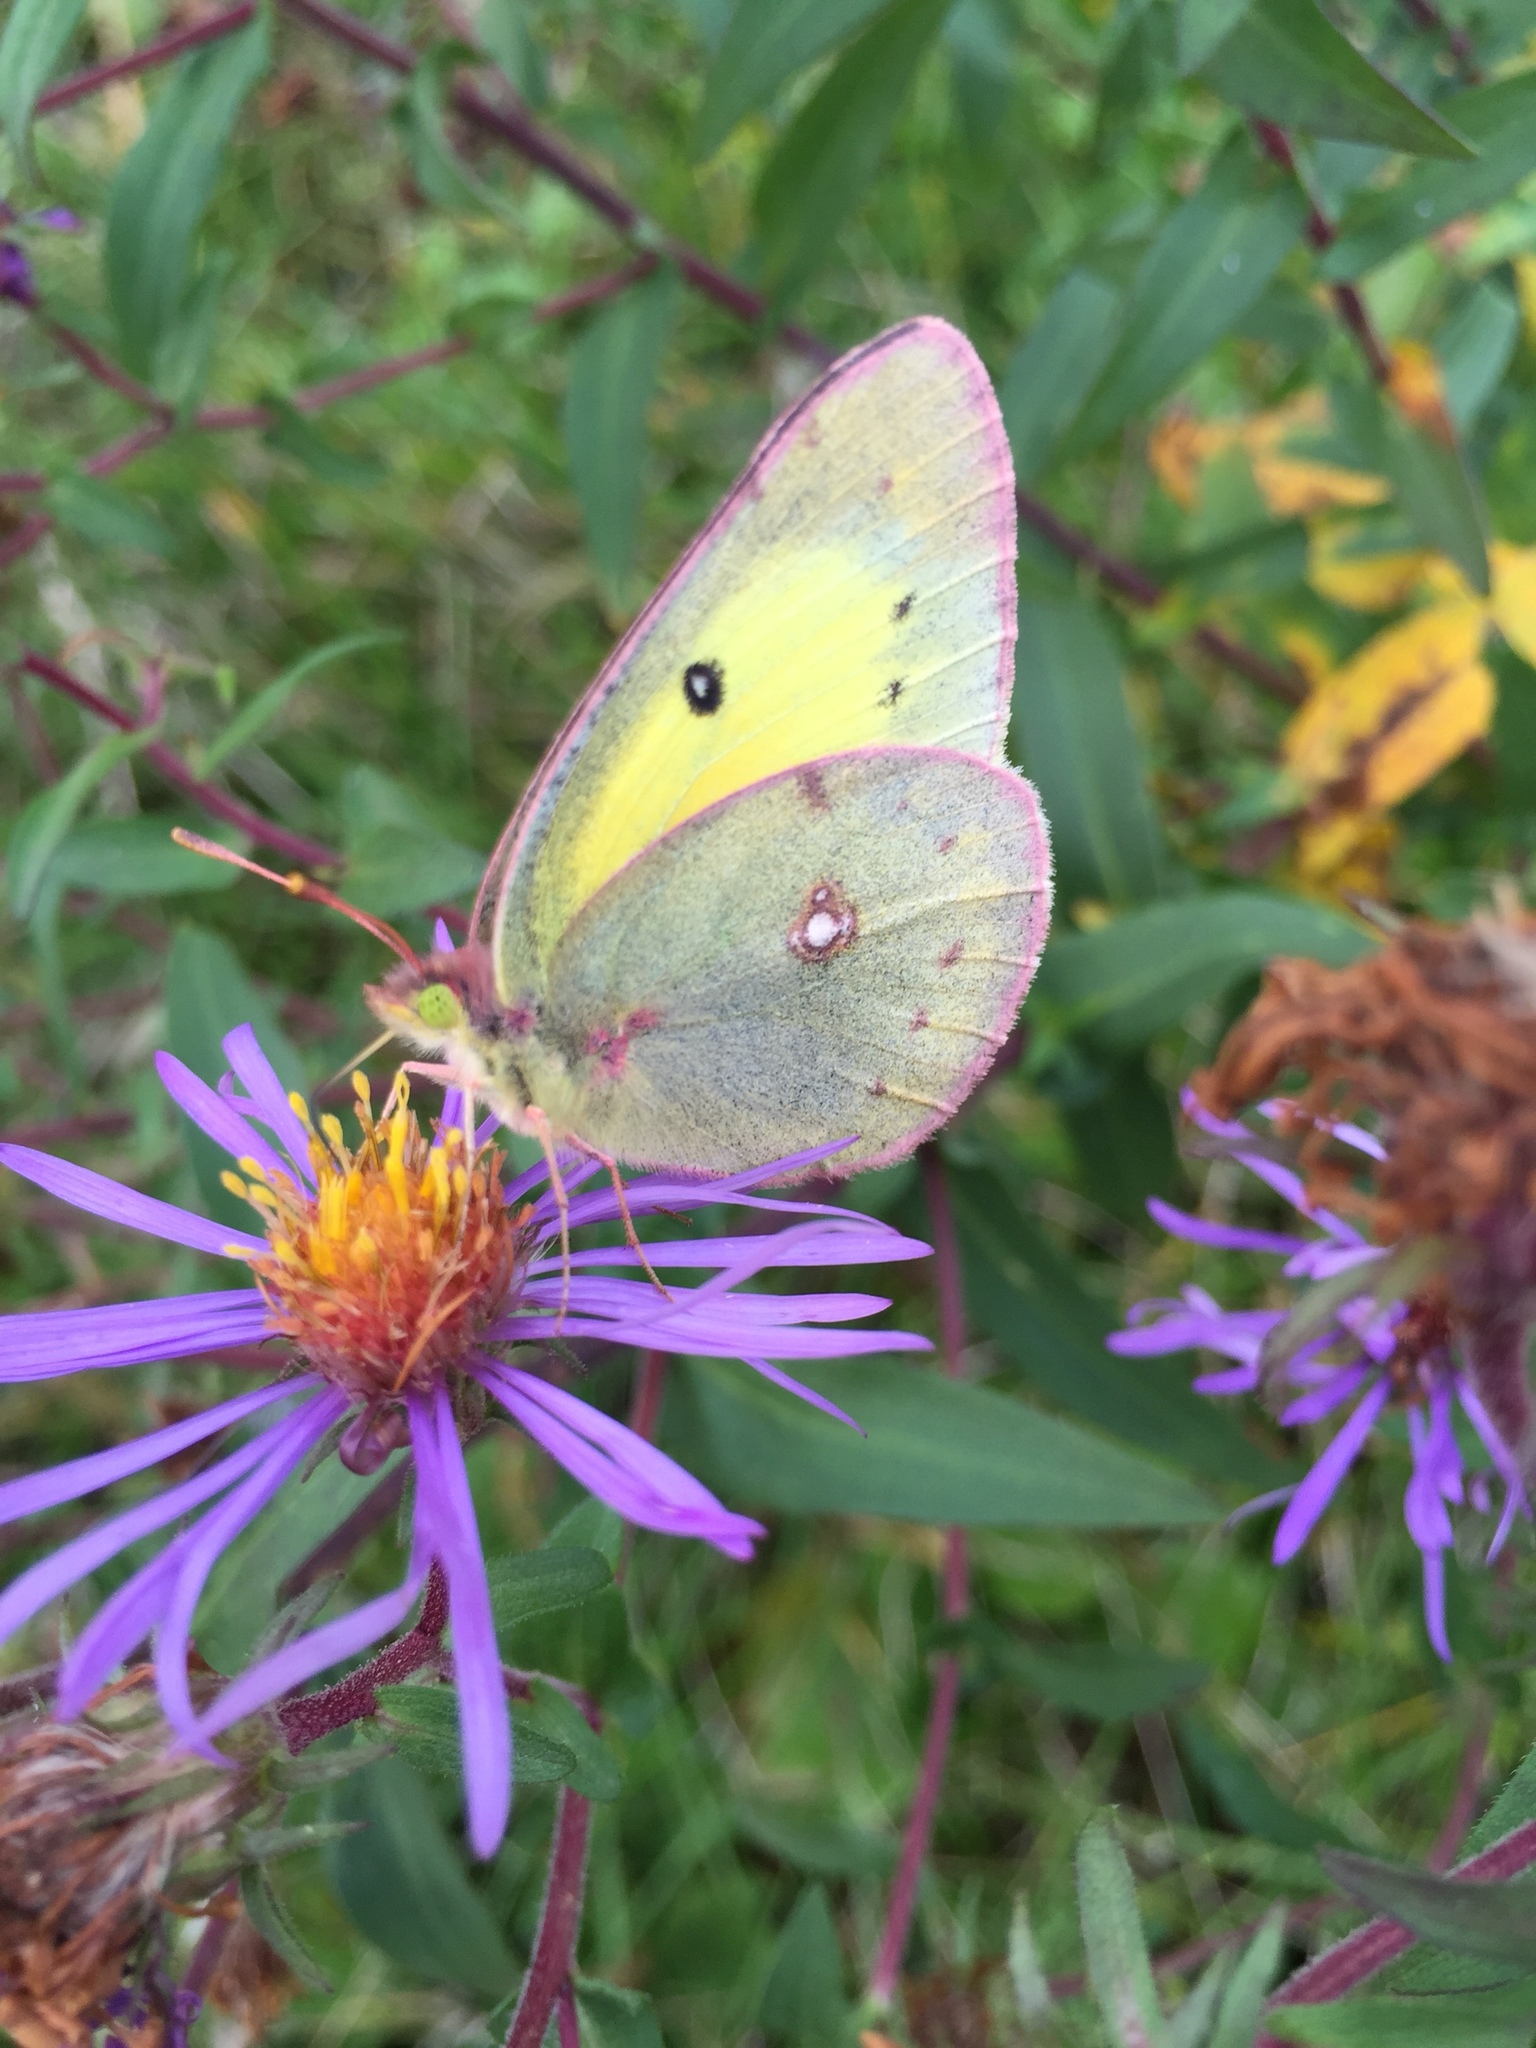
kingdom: Animalia
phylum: Arthropoda
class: Insecta
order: Lepidoptera
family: Pieridae
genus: Colias
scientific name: Colias philodice
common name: Clouded sulphur
